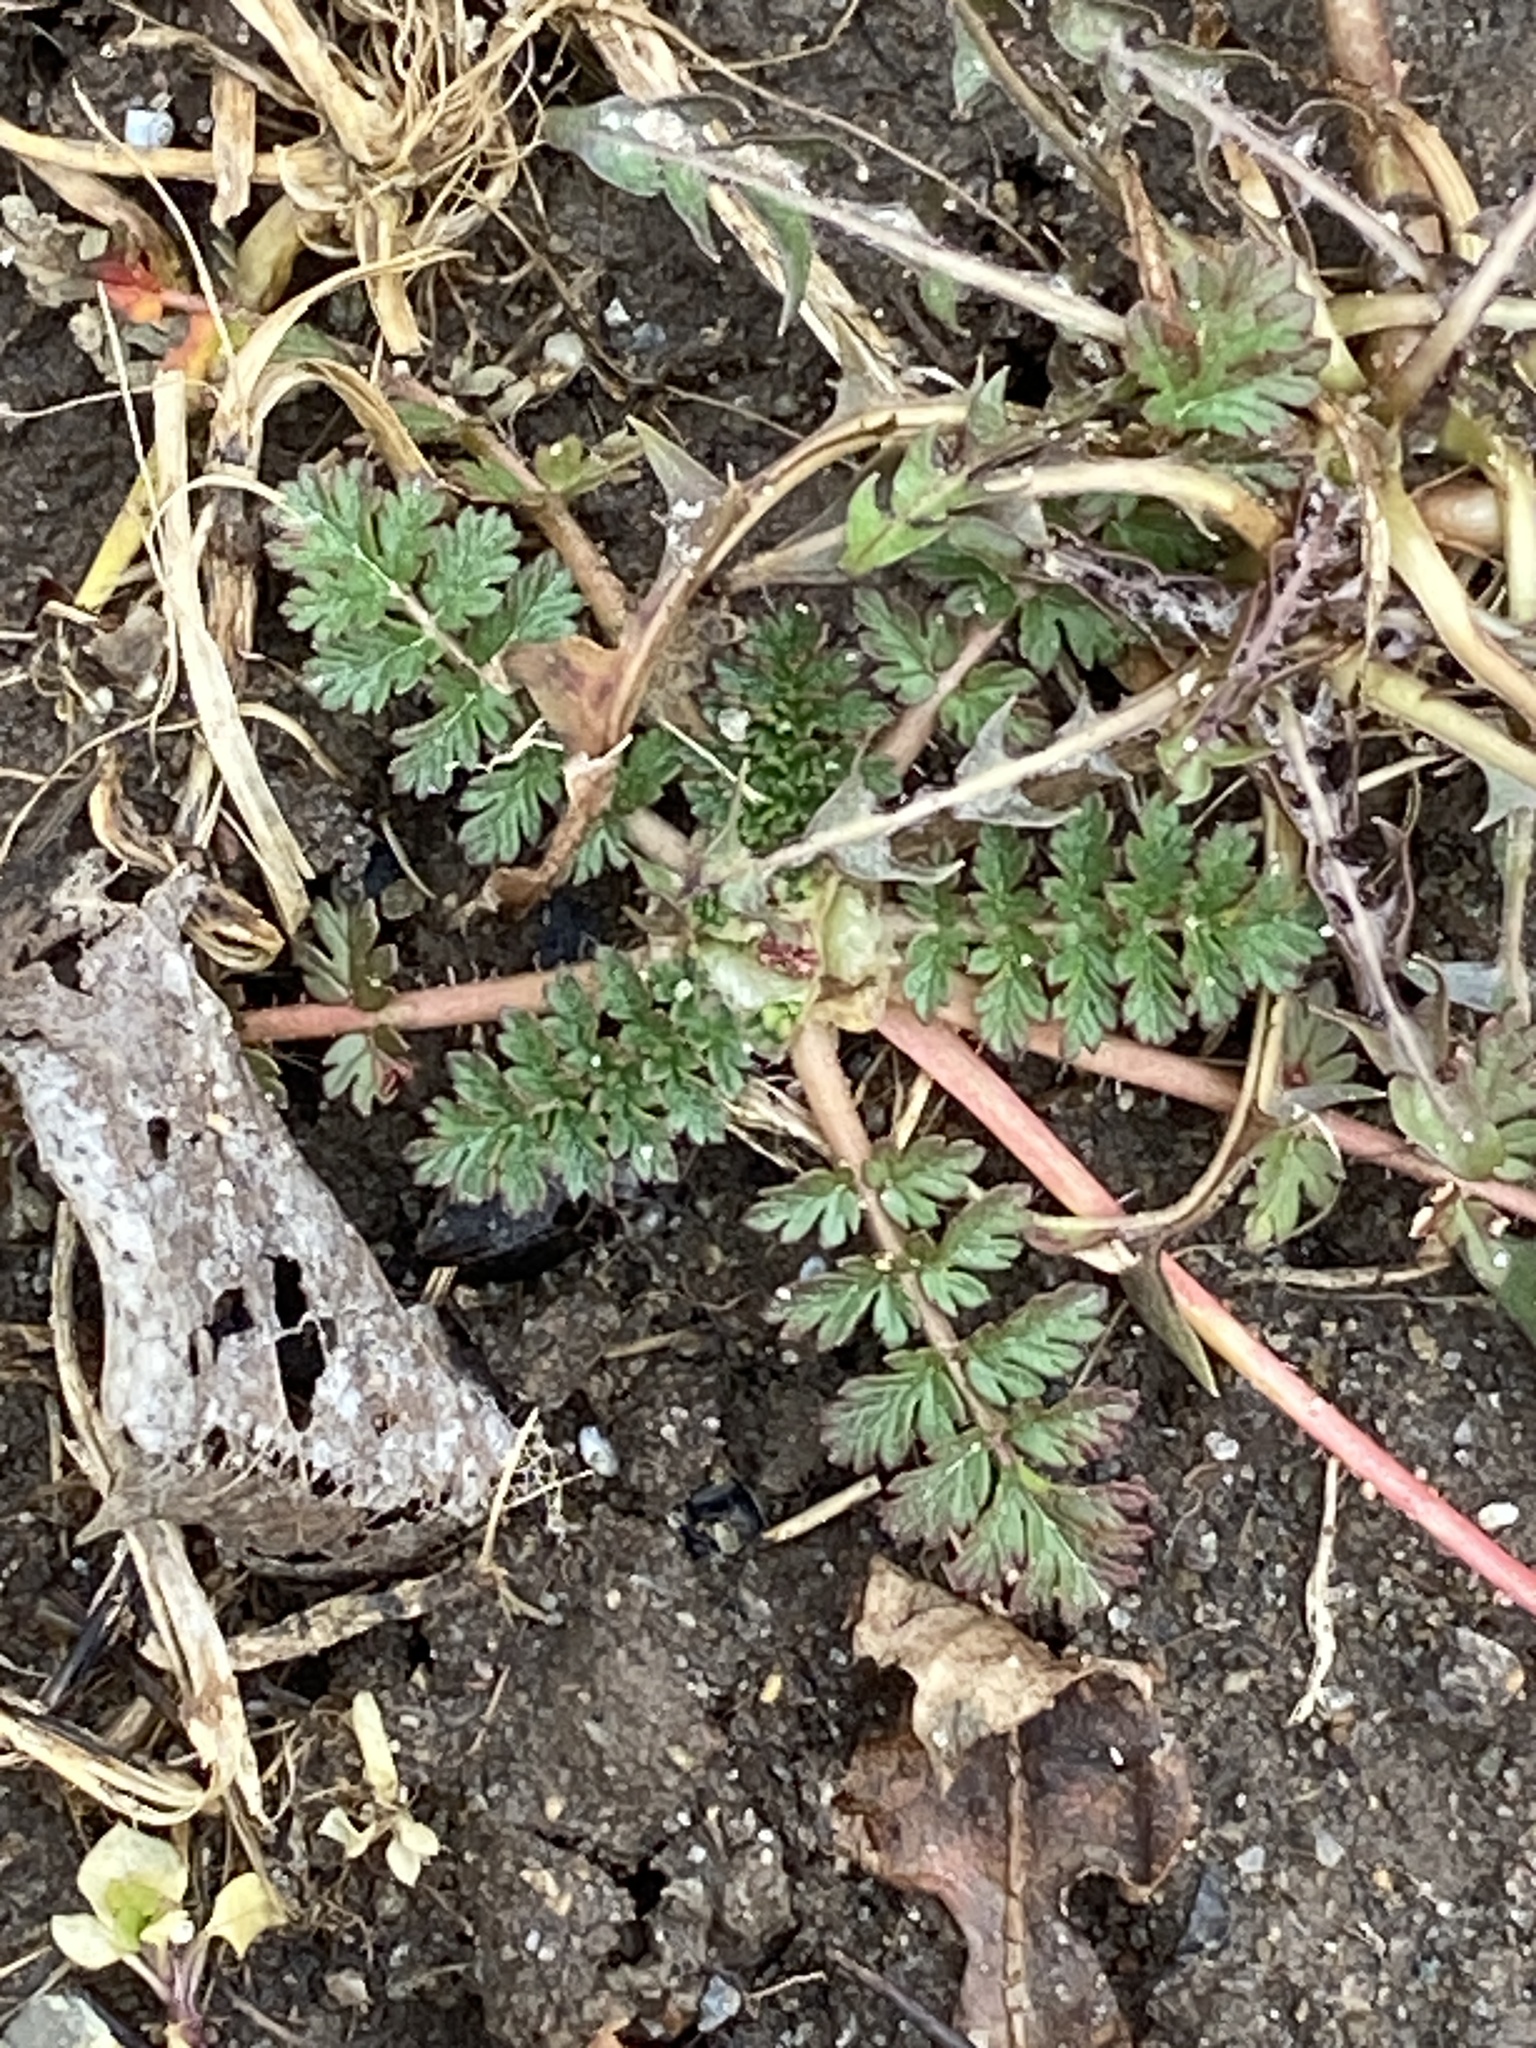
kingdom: Plantae
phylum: Tracheophyta
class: Magnoliopsida
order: Geraniales
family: Geraniaceae
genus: Erodium
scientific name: Erodium cicutarium
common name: Common stork's-bill
